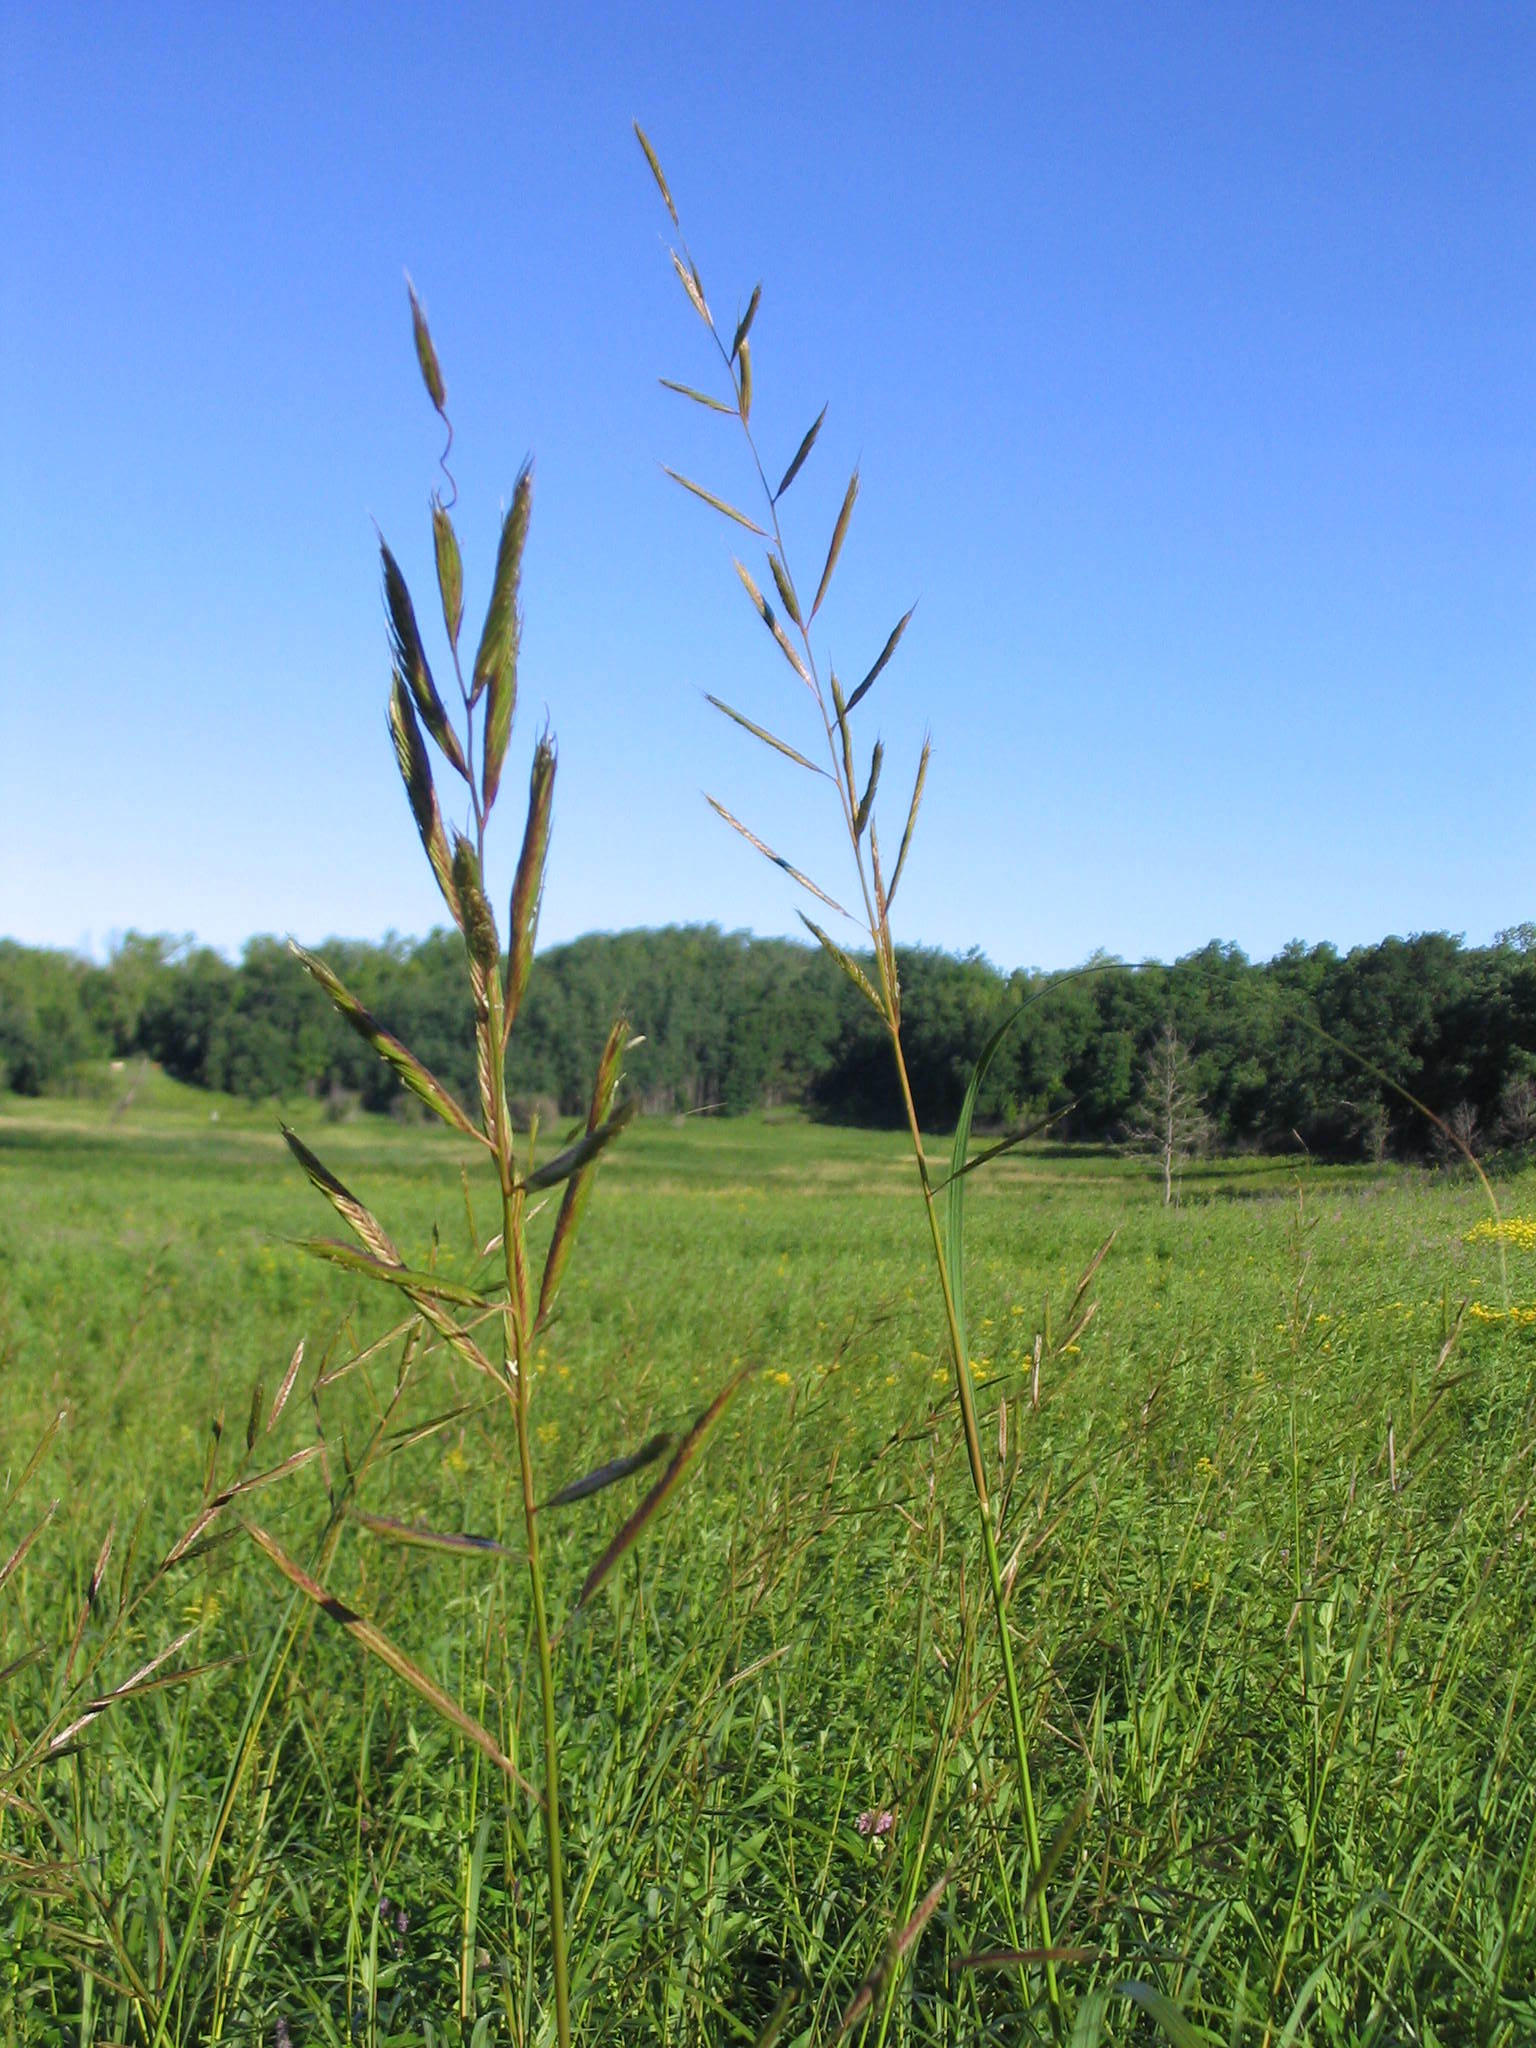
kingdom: Plantae
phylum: Tracheophyta
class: Liliopsida
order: Poales
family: Poaceae
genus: Sporobolus
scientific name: Sporobolus michauxianus
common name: Freshwater cordgrass
